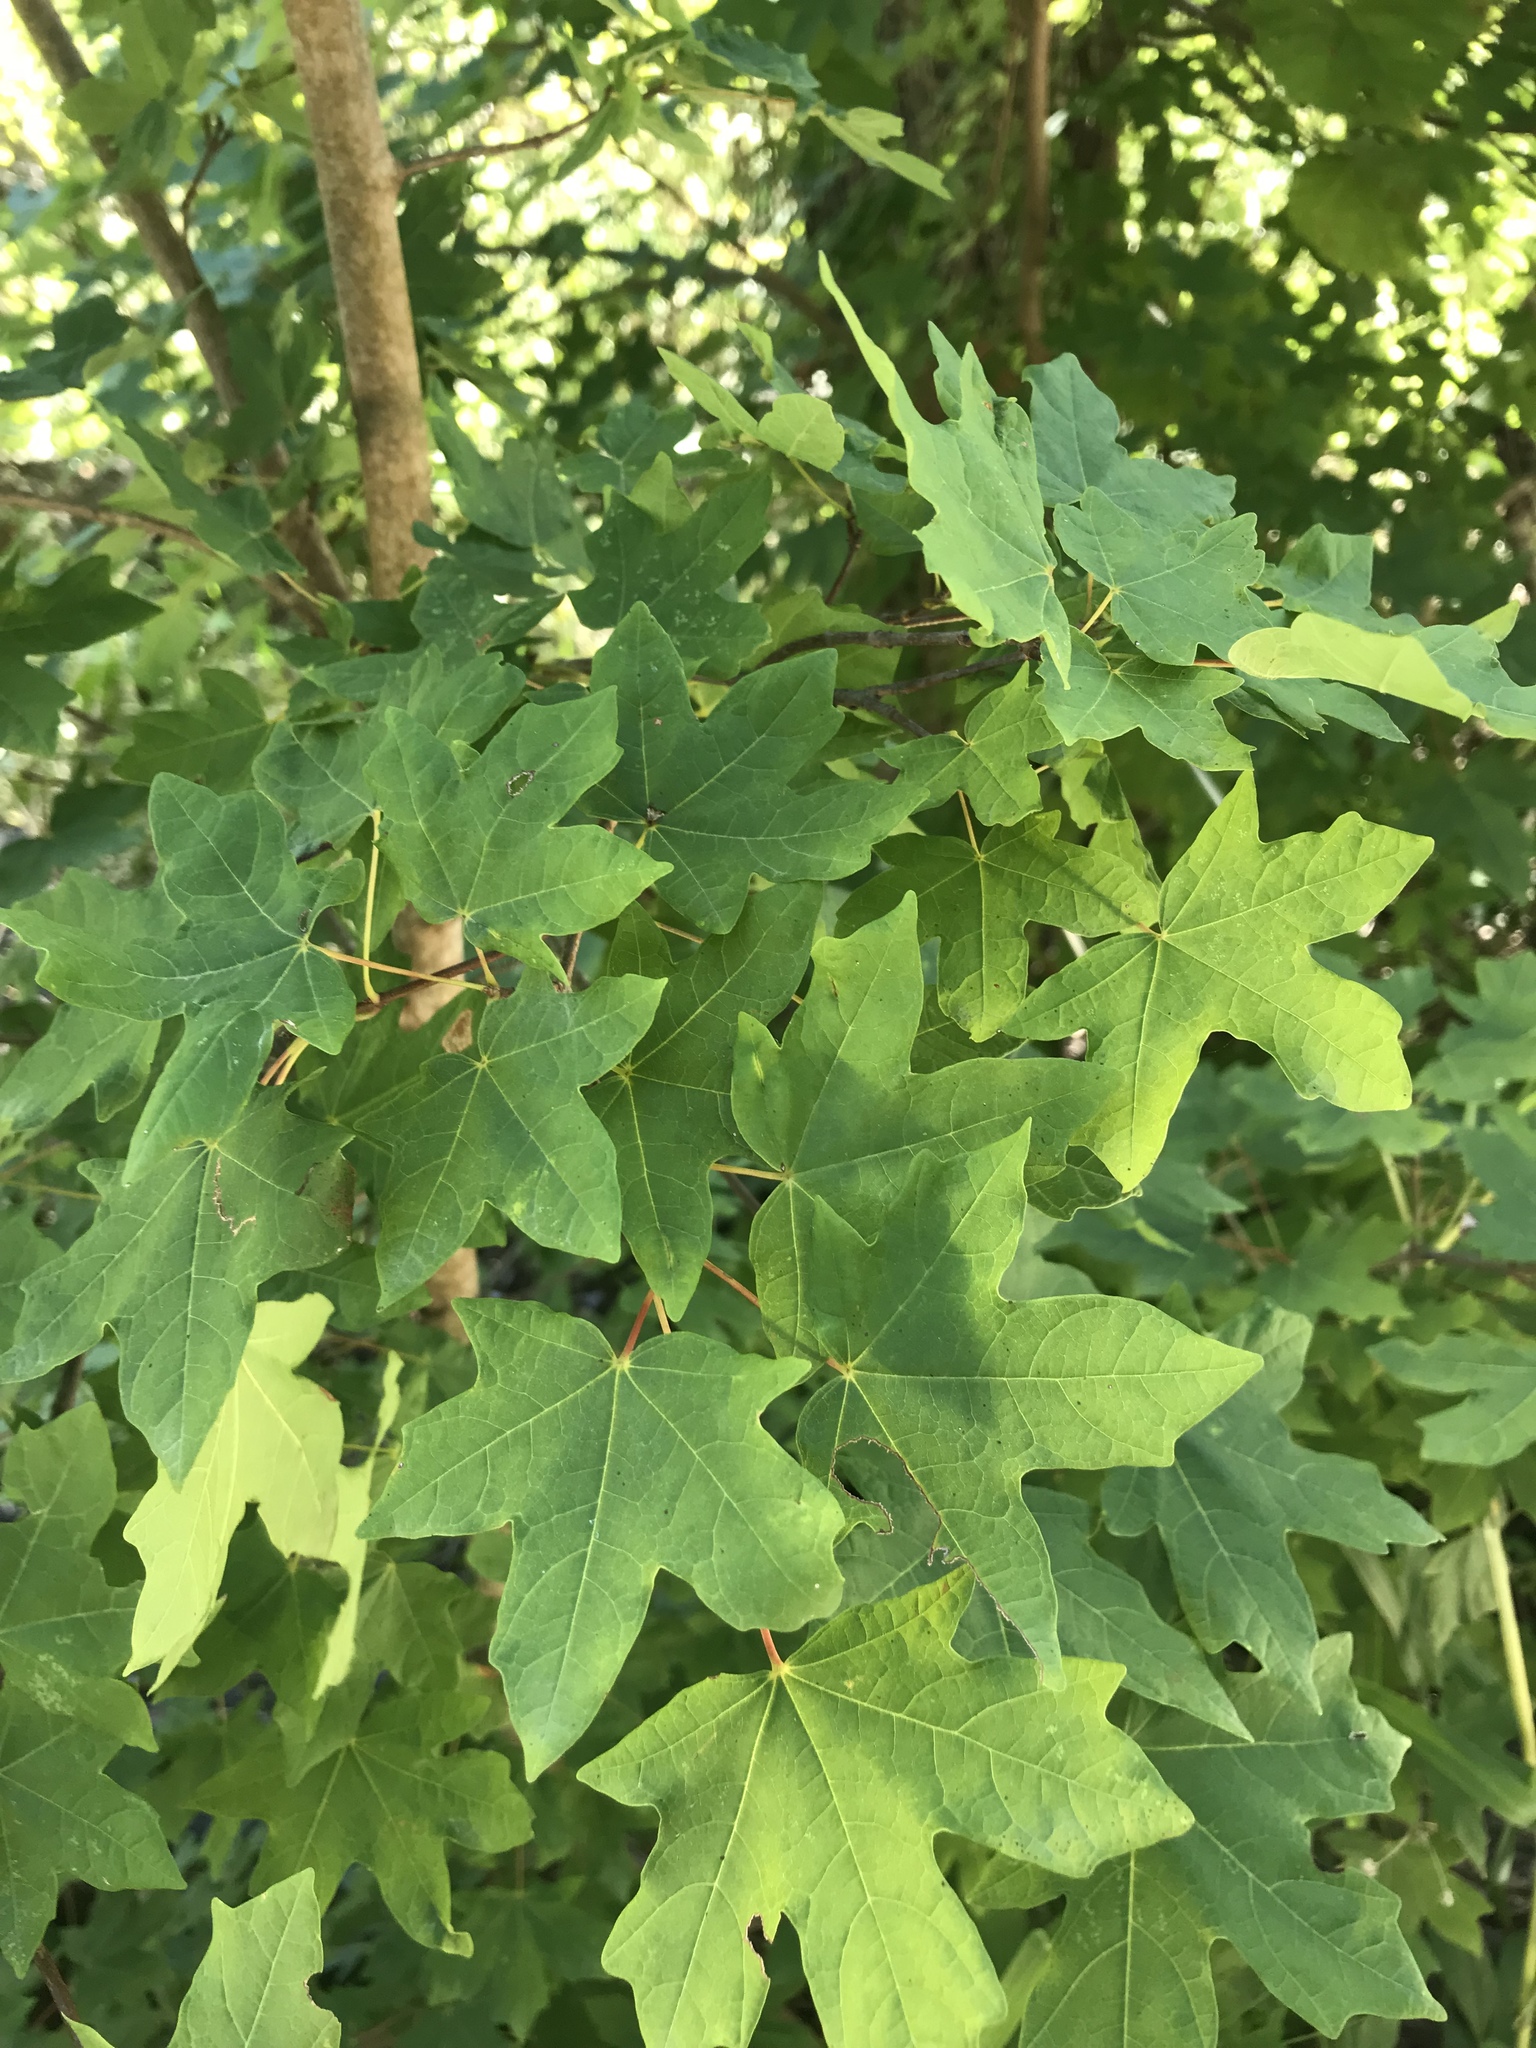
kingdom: Plantae
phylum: Tracheophyta
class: Magnoliopsida
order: Sapindales
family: Sapindaceae
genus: Acer
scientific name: Acer grandidentatum
